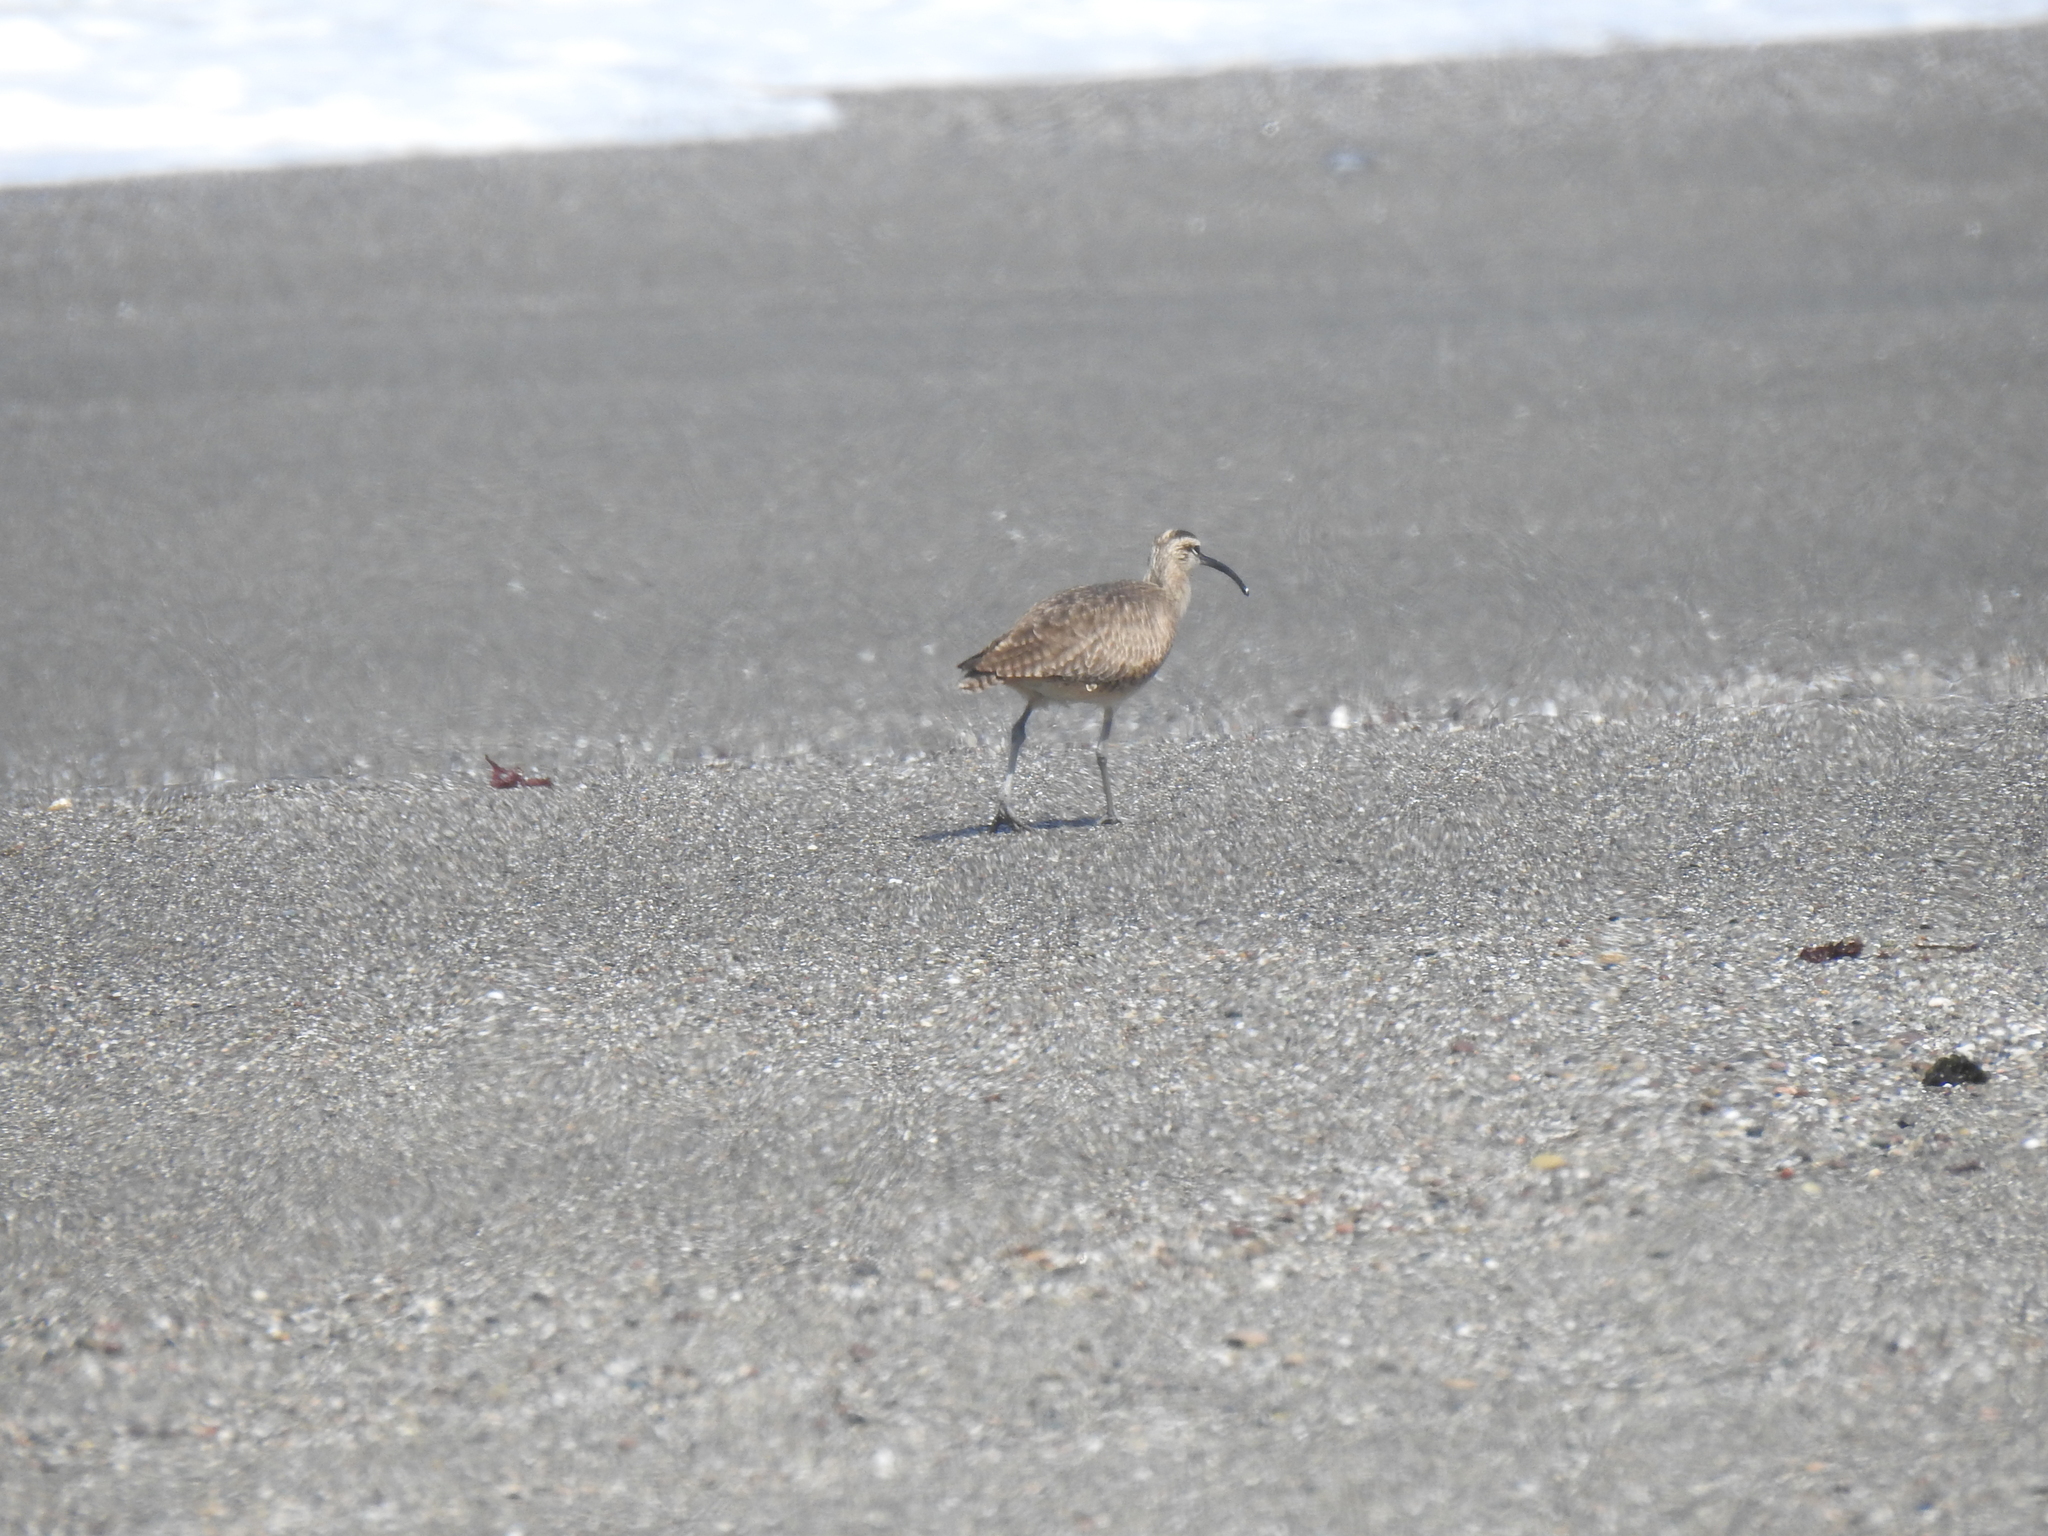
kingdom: Animalia
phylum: Chordata
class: Aves
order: Charadriiformes
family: Scolopacidae
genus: Numenius
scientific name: Numenius phaeopus
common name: Whimbrel
